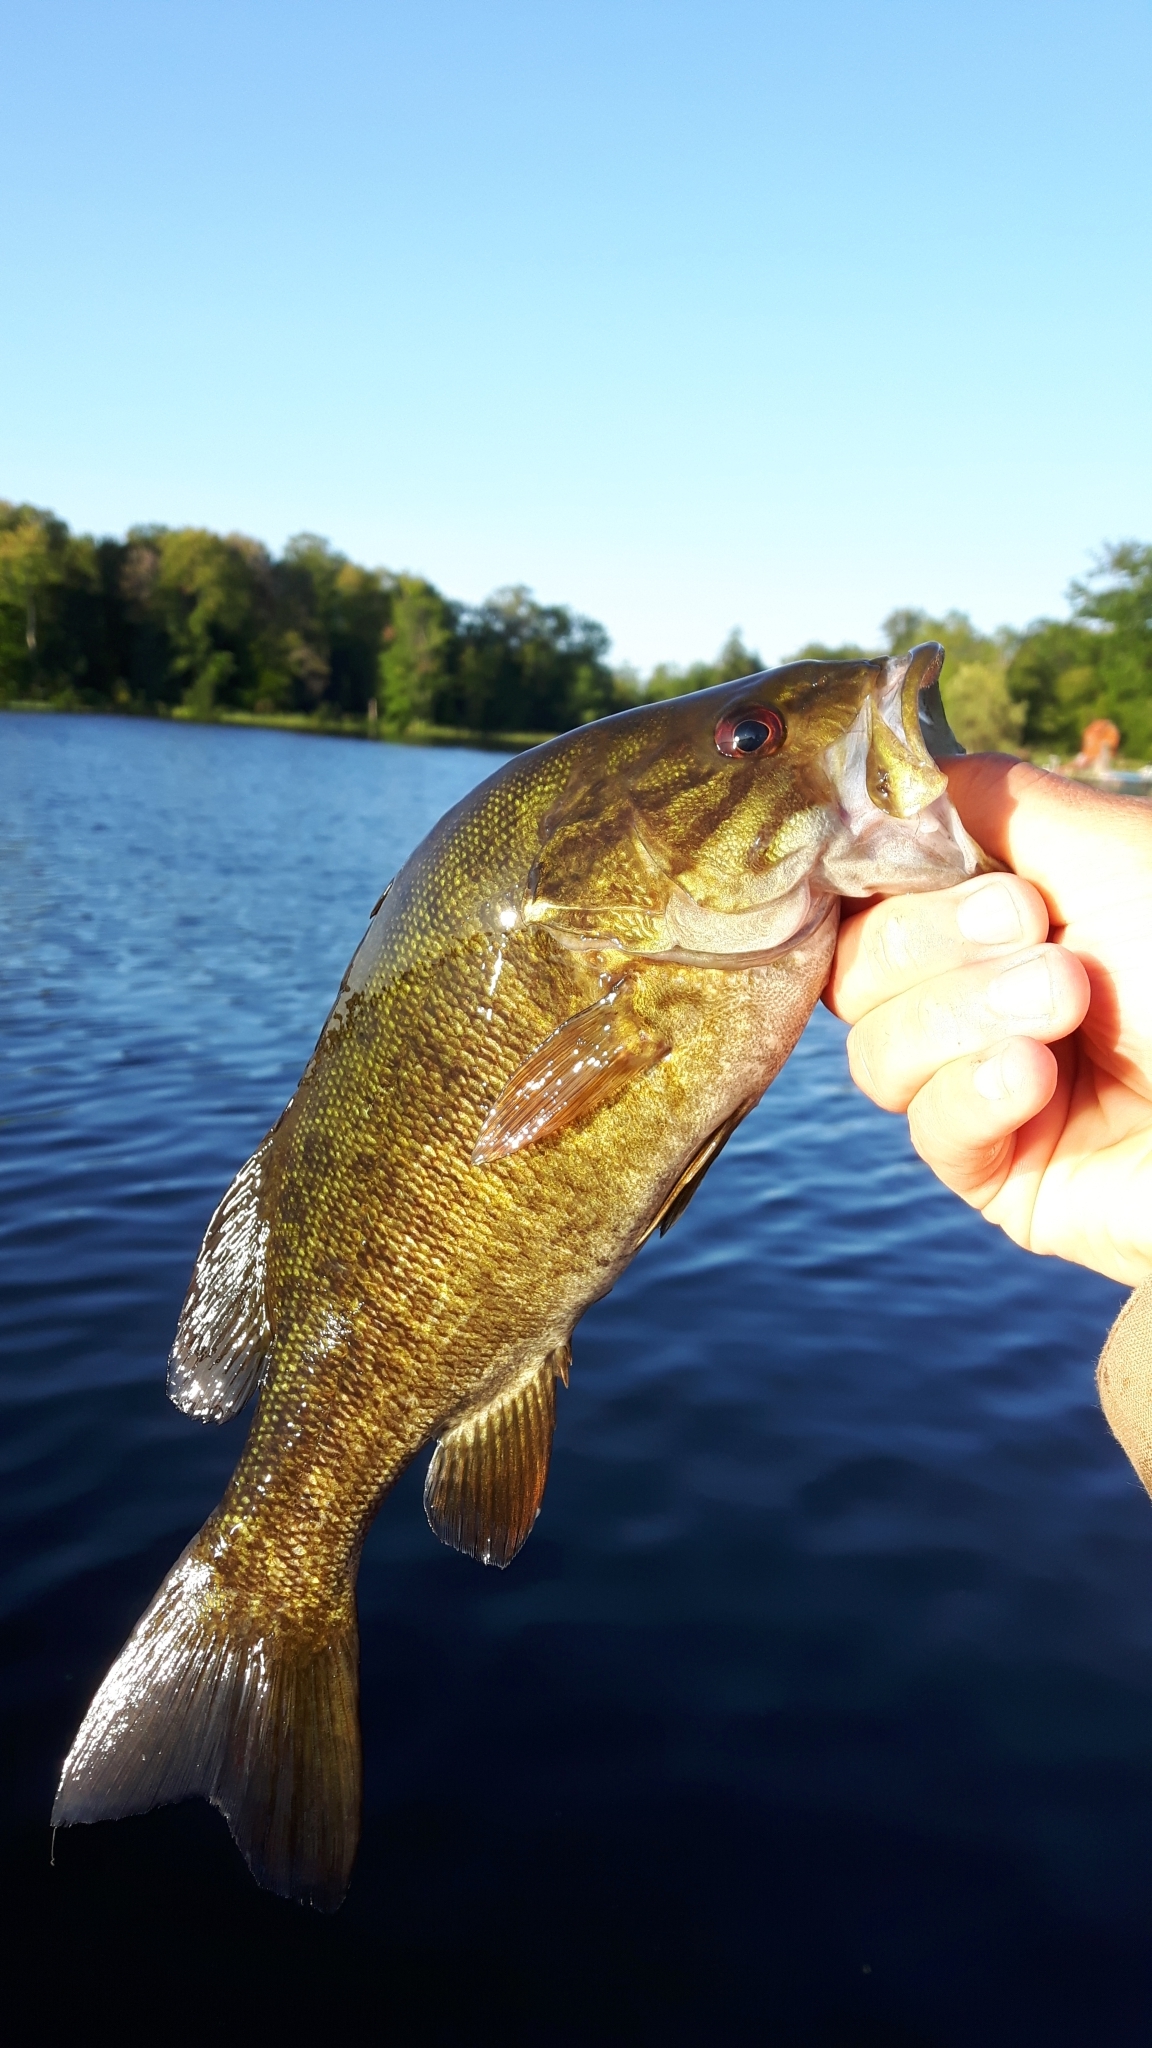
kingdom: Animalia
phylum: Chordata
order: Perciformes
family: Centrarchidae
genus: Micropterus
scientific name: Micropterus dolomieu
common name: Smallmouth bass
